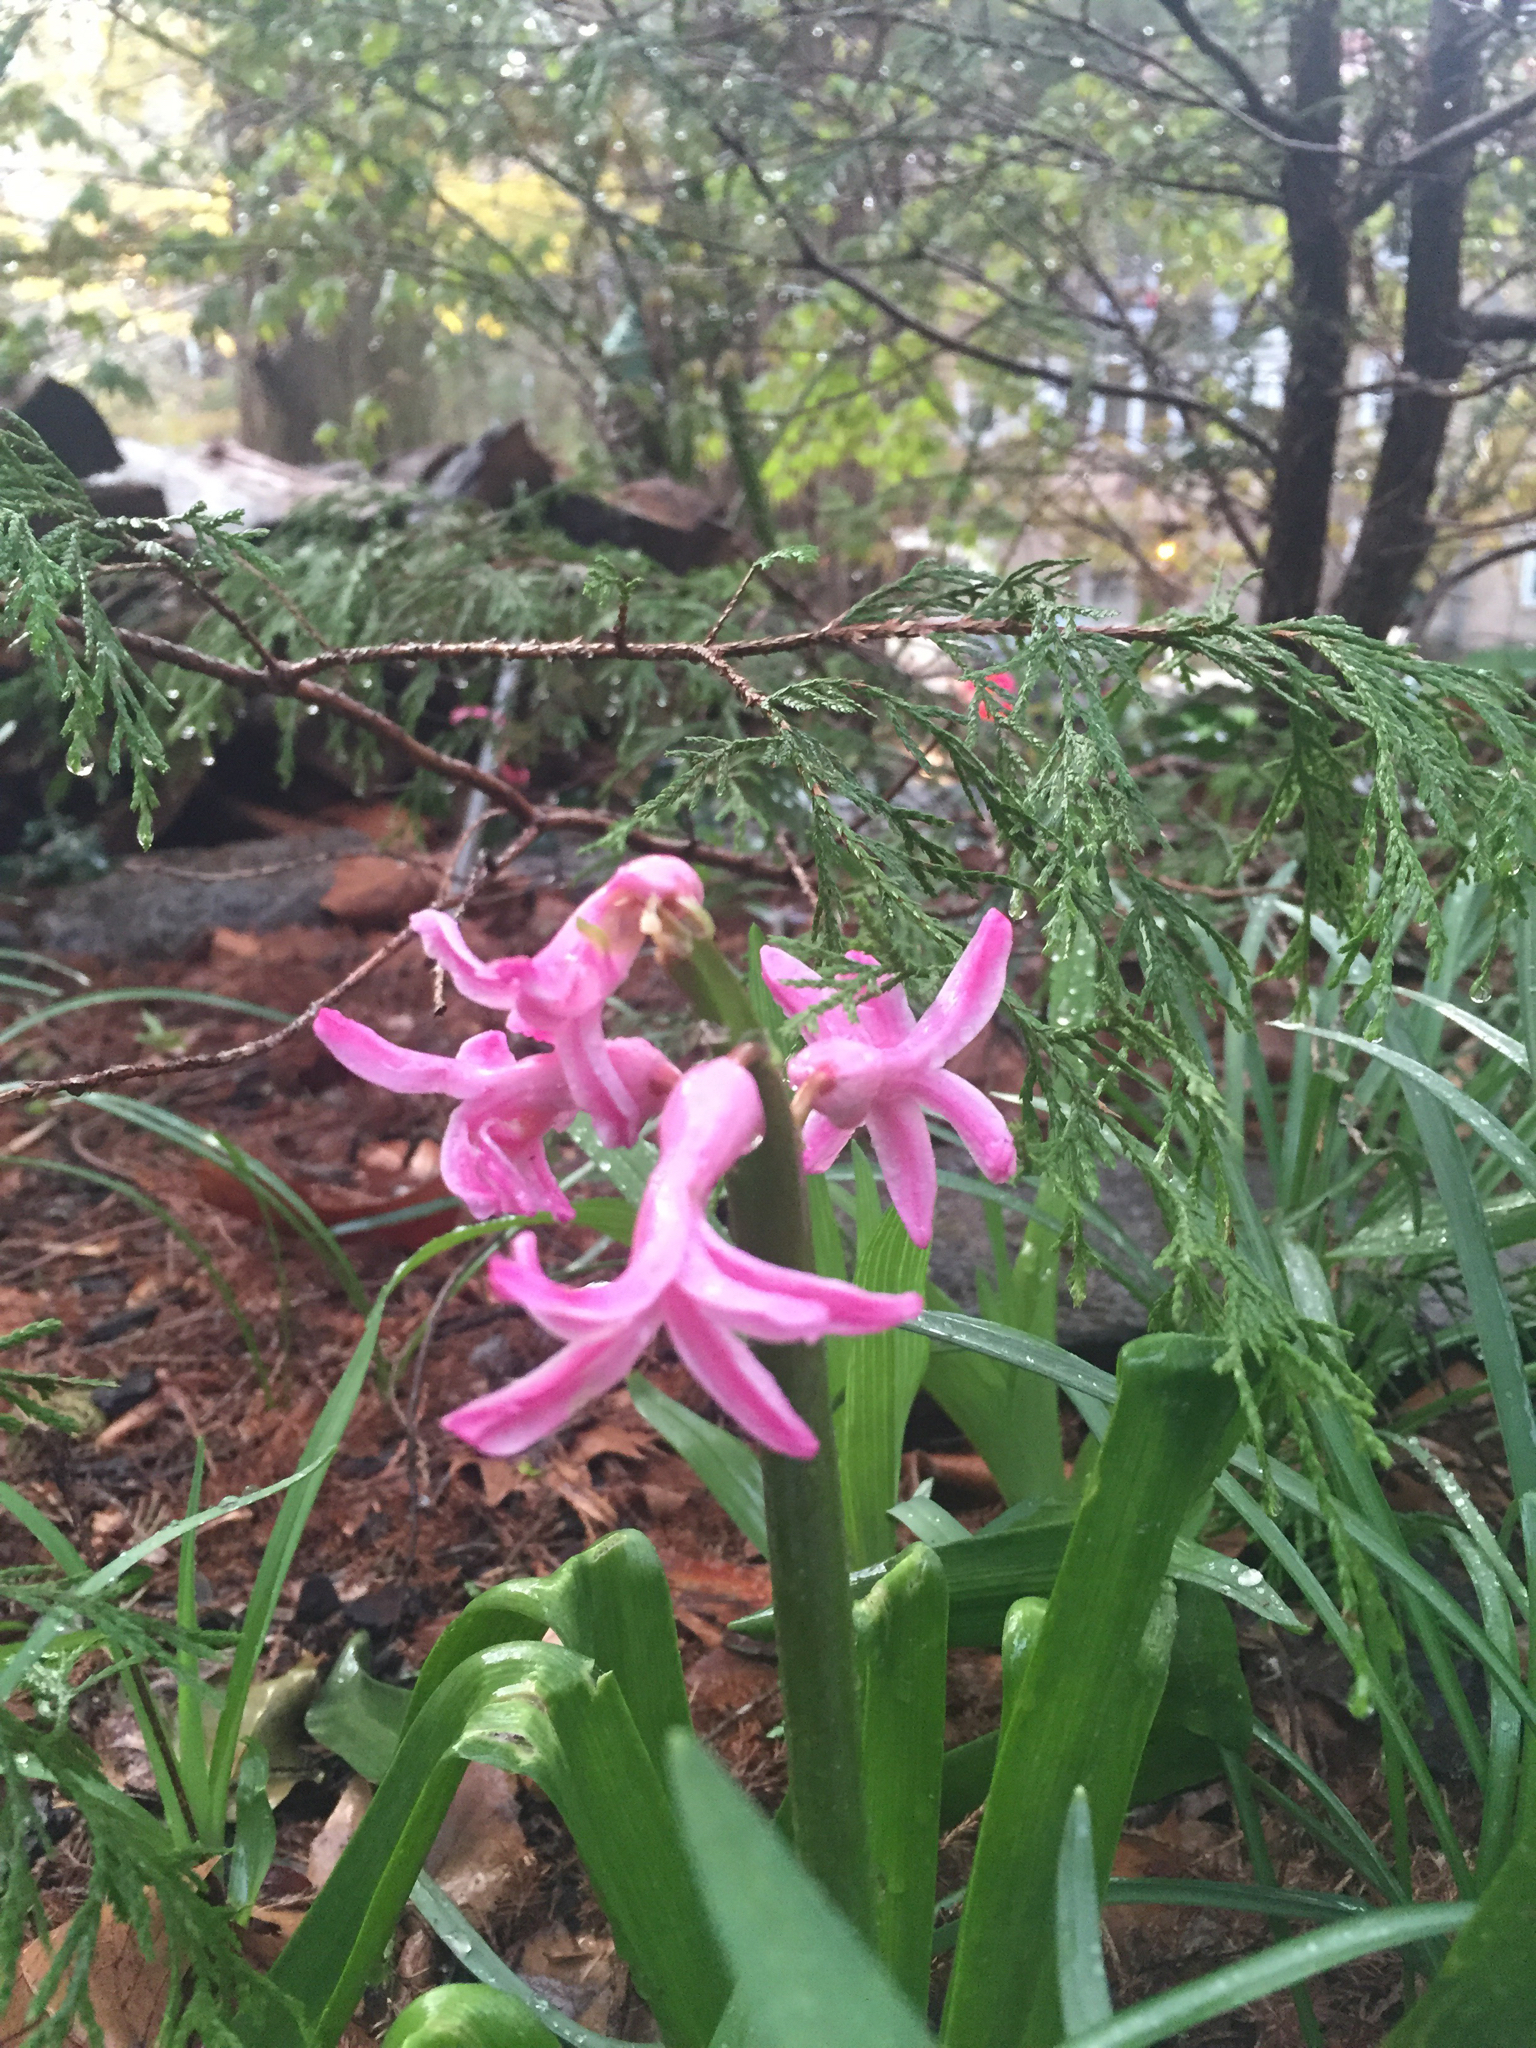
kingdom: Plantae
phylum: Tracheophyta
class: Liliopsida
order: Asparagales
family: Asparagaceae
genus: Hyacinthus
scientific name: Hyacinthus orientalis
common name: Hyacinth
